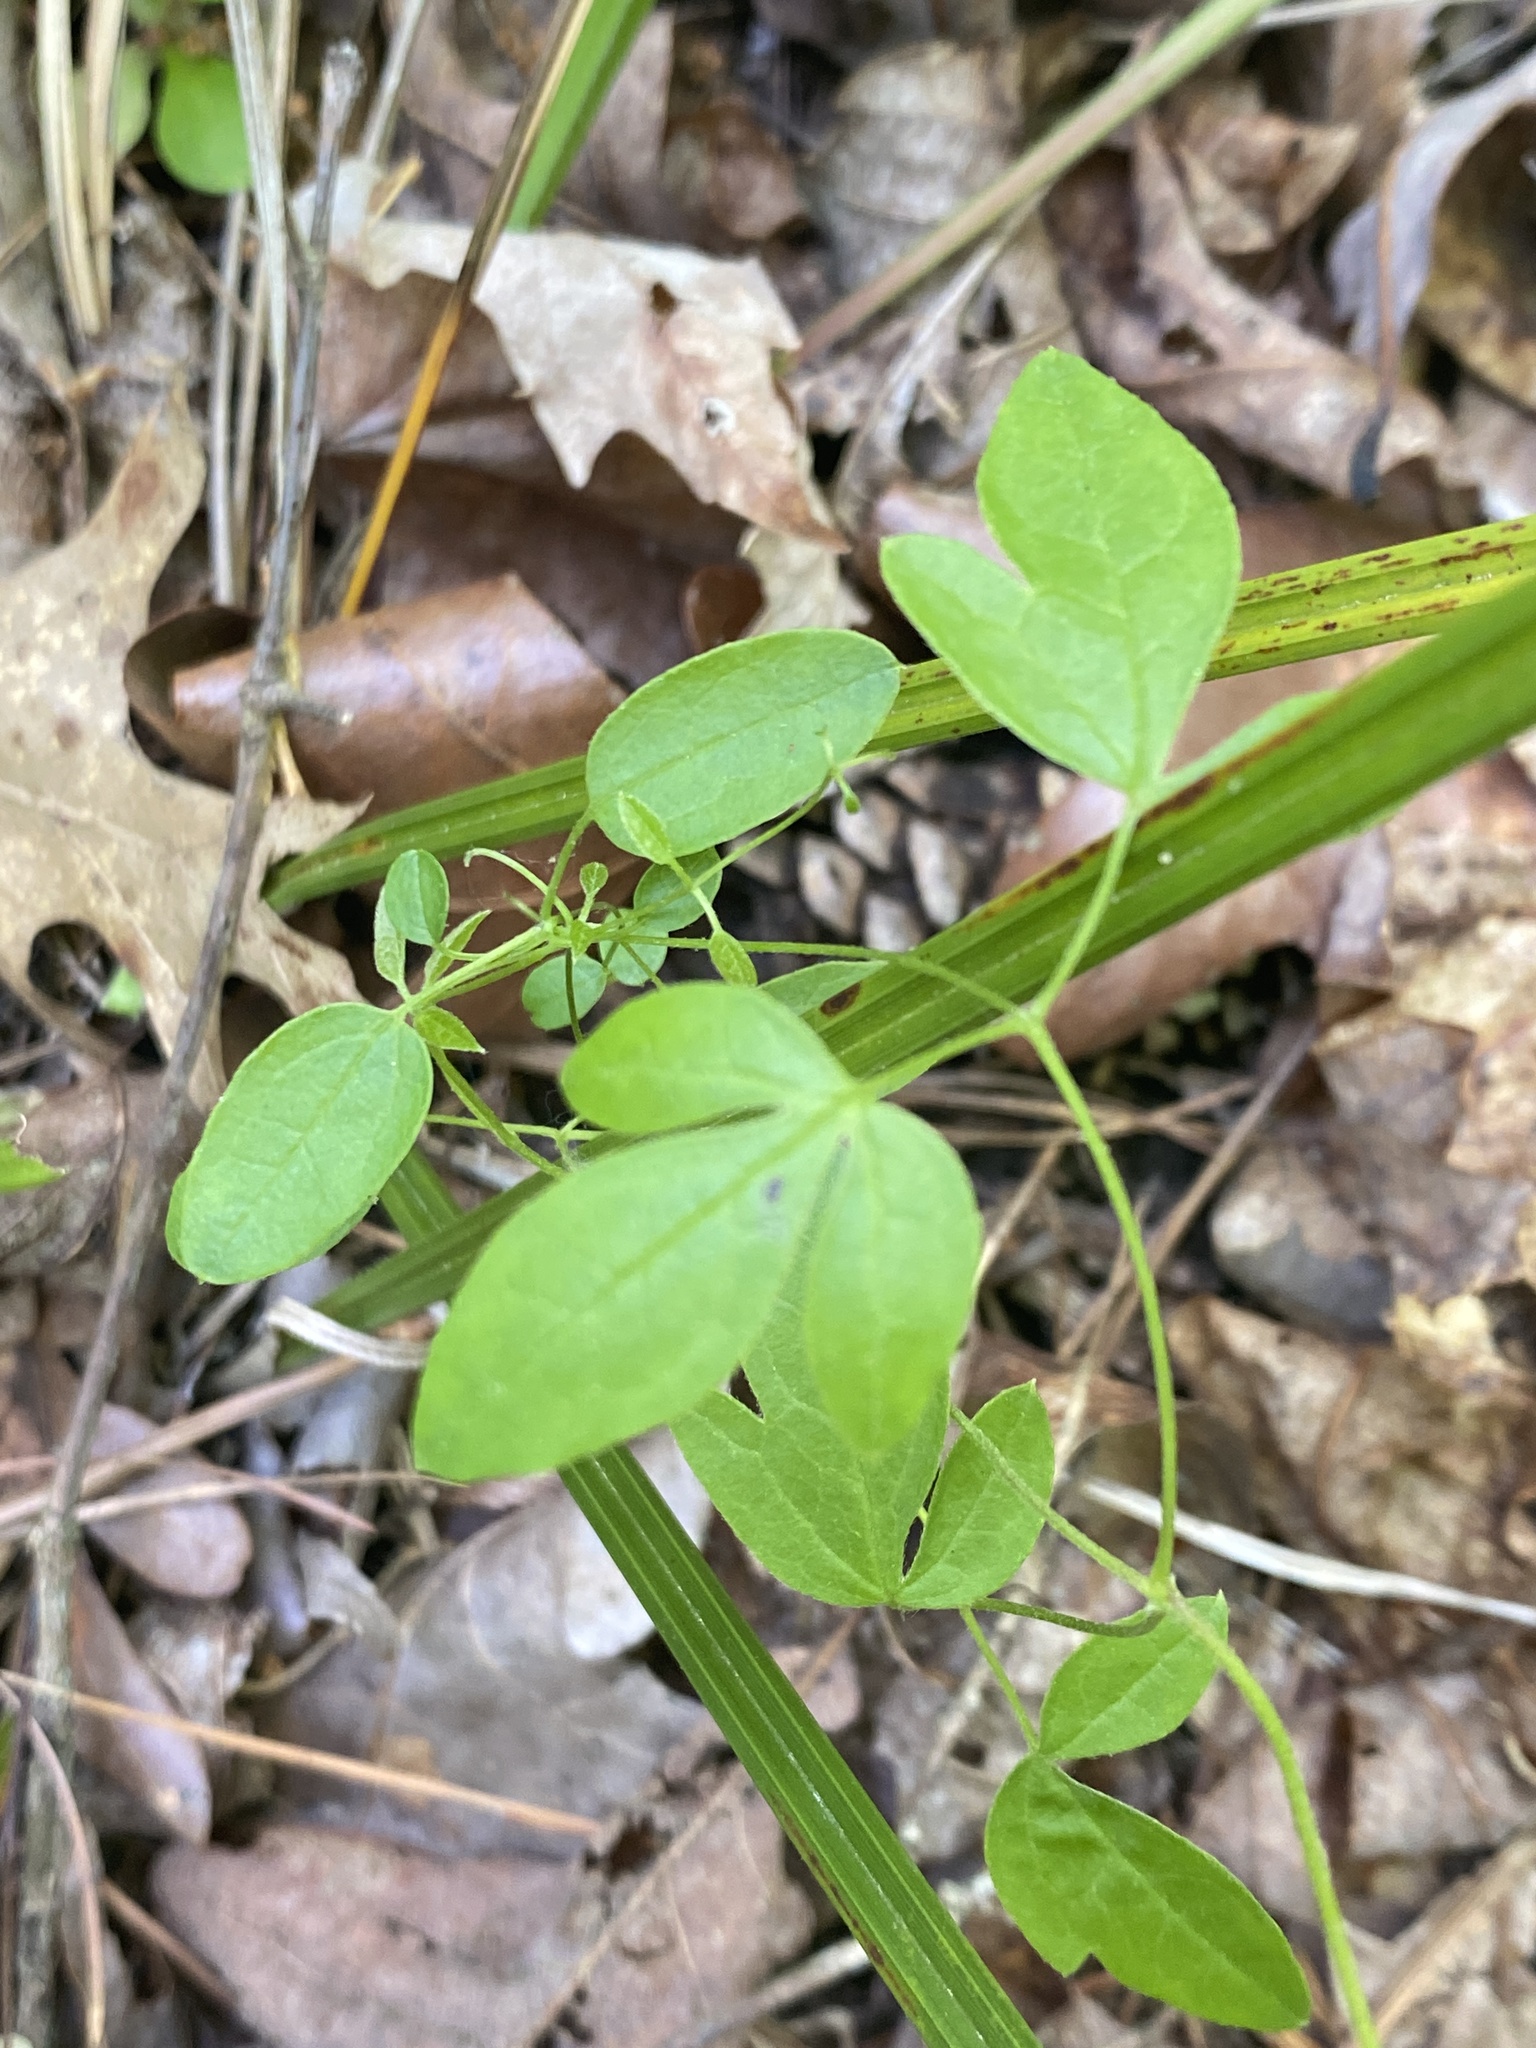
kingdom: Plantae
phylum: Tracheophyta
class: Magnoliopsida
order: Ranunculales
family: Ranunculaceae
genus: Clematis
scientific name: Clematis viorna
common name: Leather-flower
